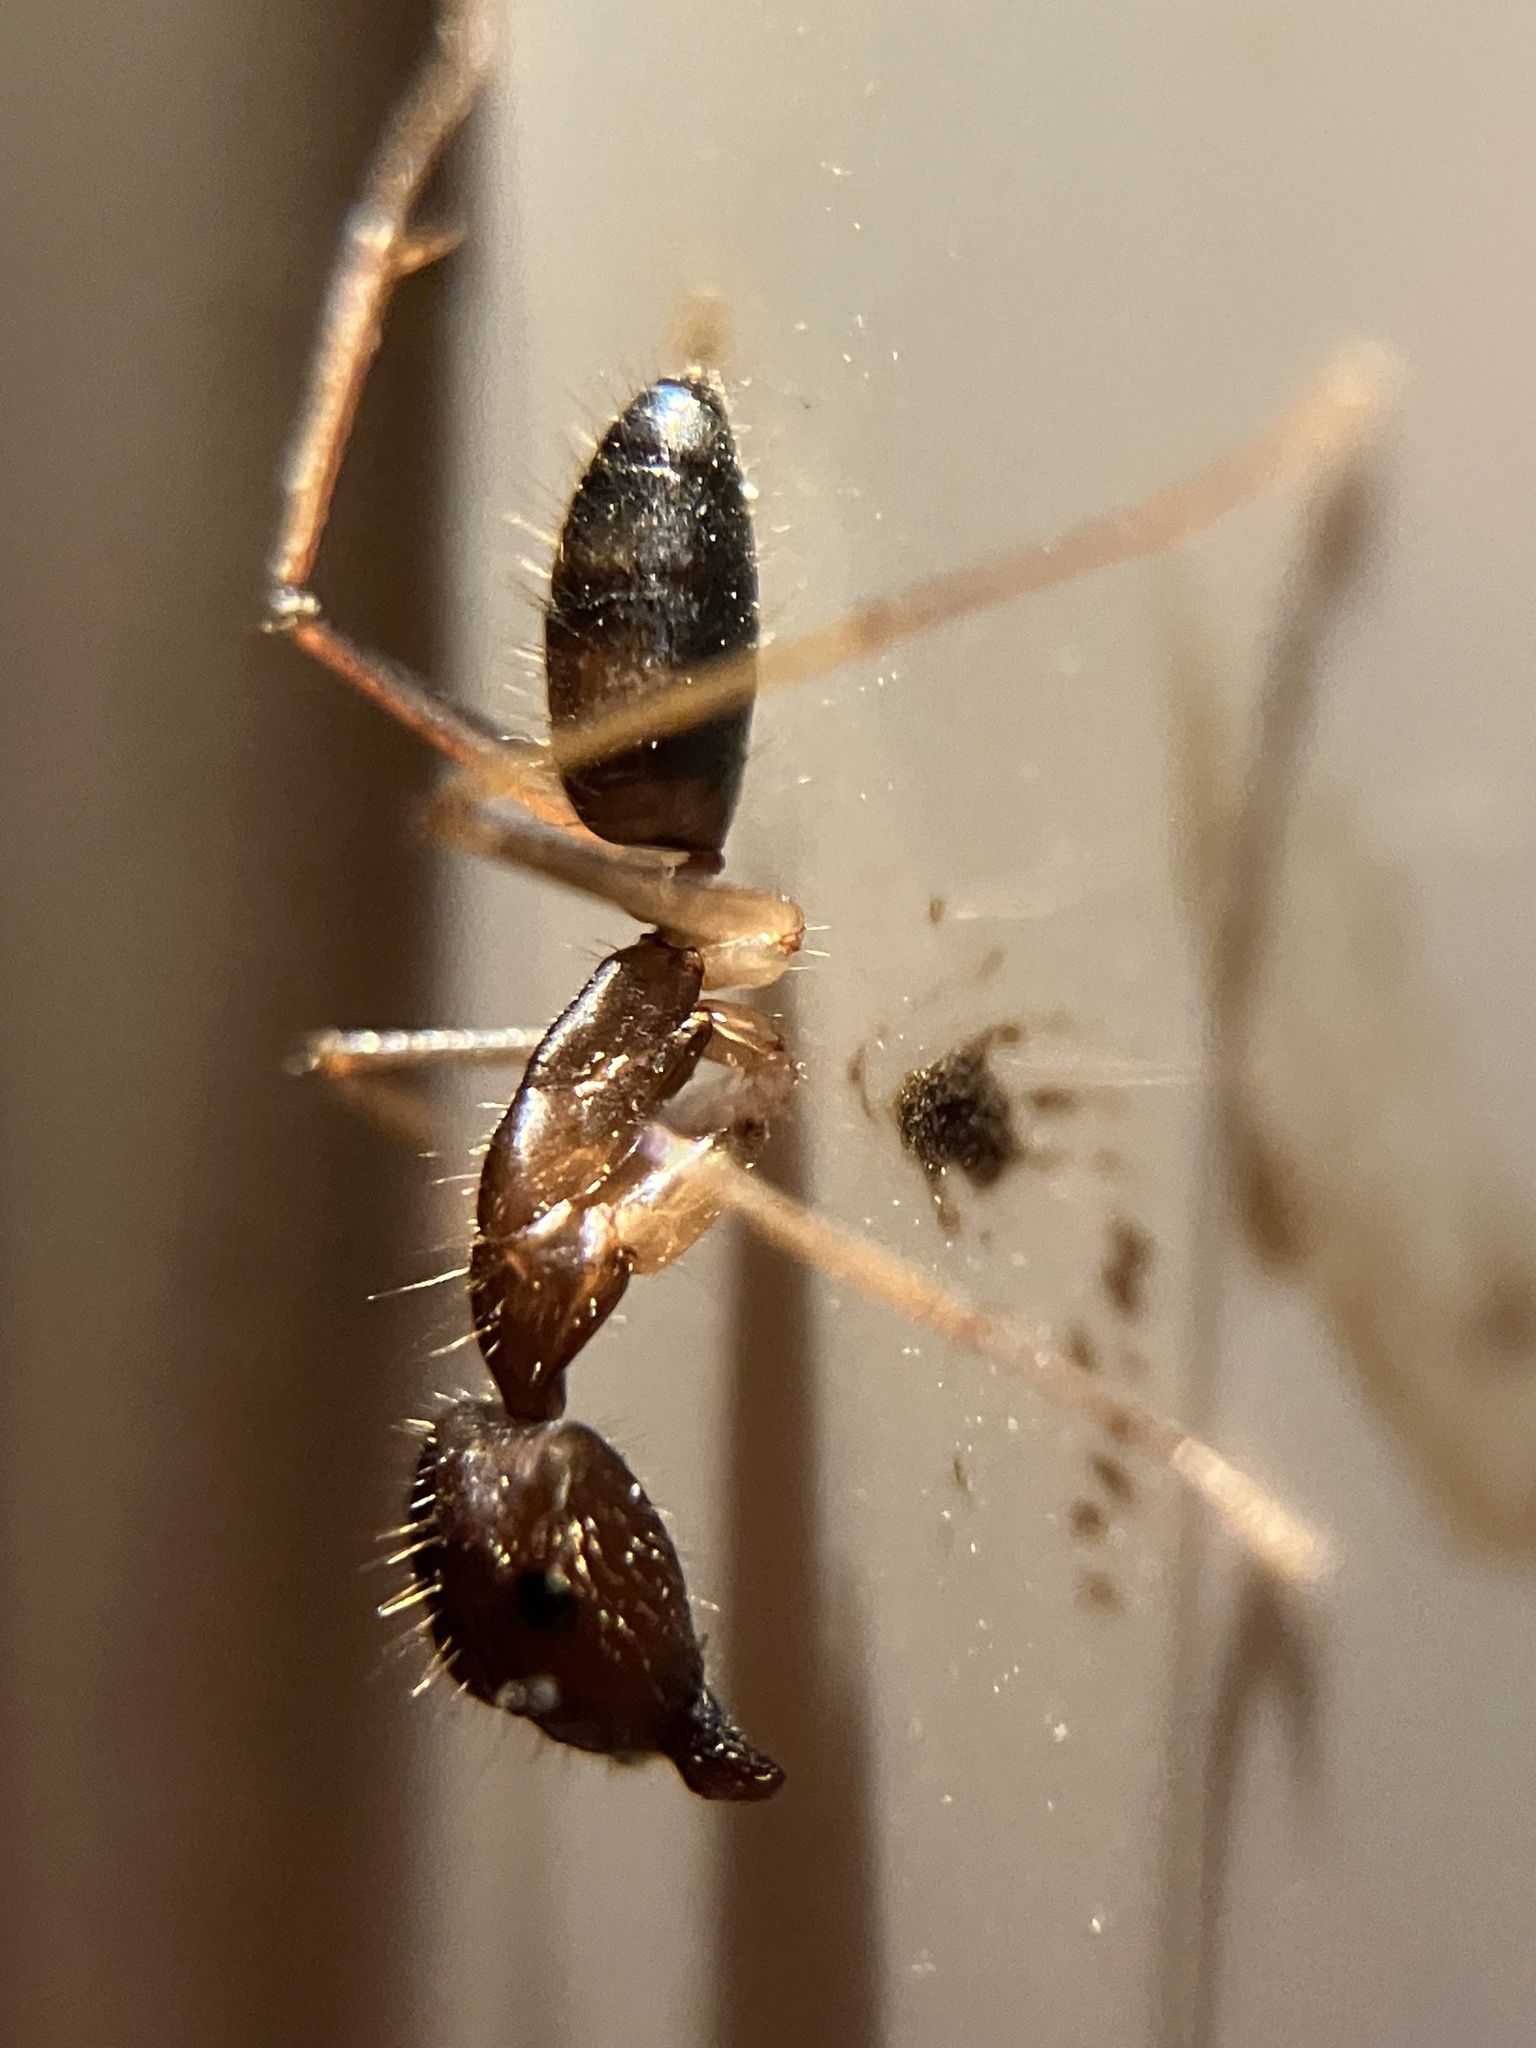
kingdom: Animalia
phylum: Arthropoda
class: Insecta
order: Hymenoptera
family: Formicidae
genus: Camponotus
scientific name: Camponotus simoni
